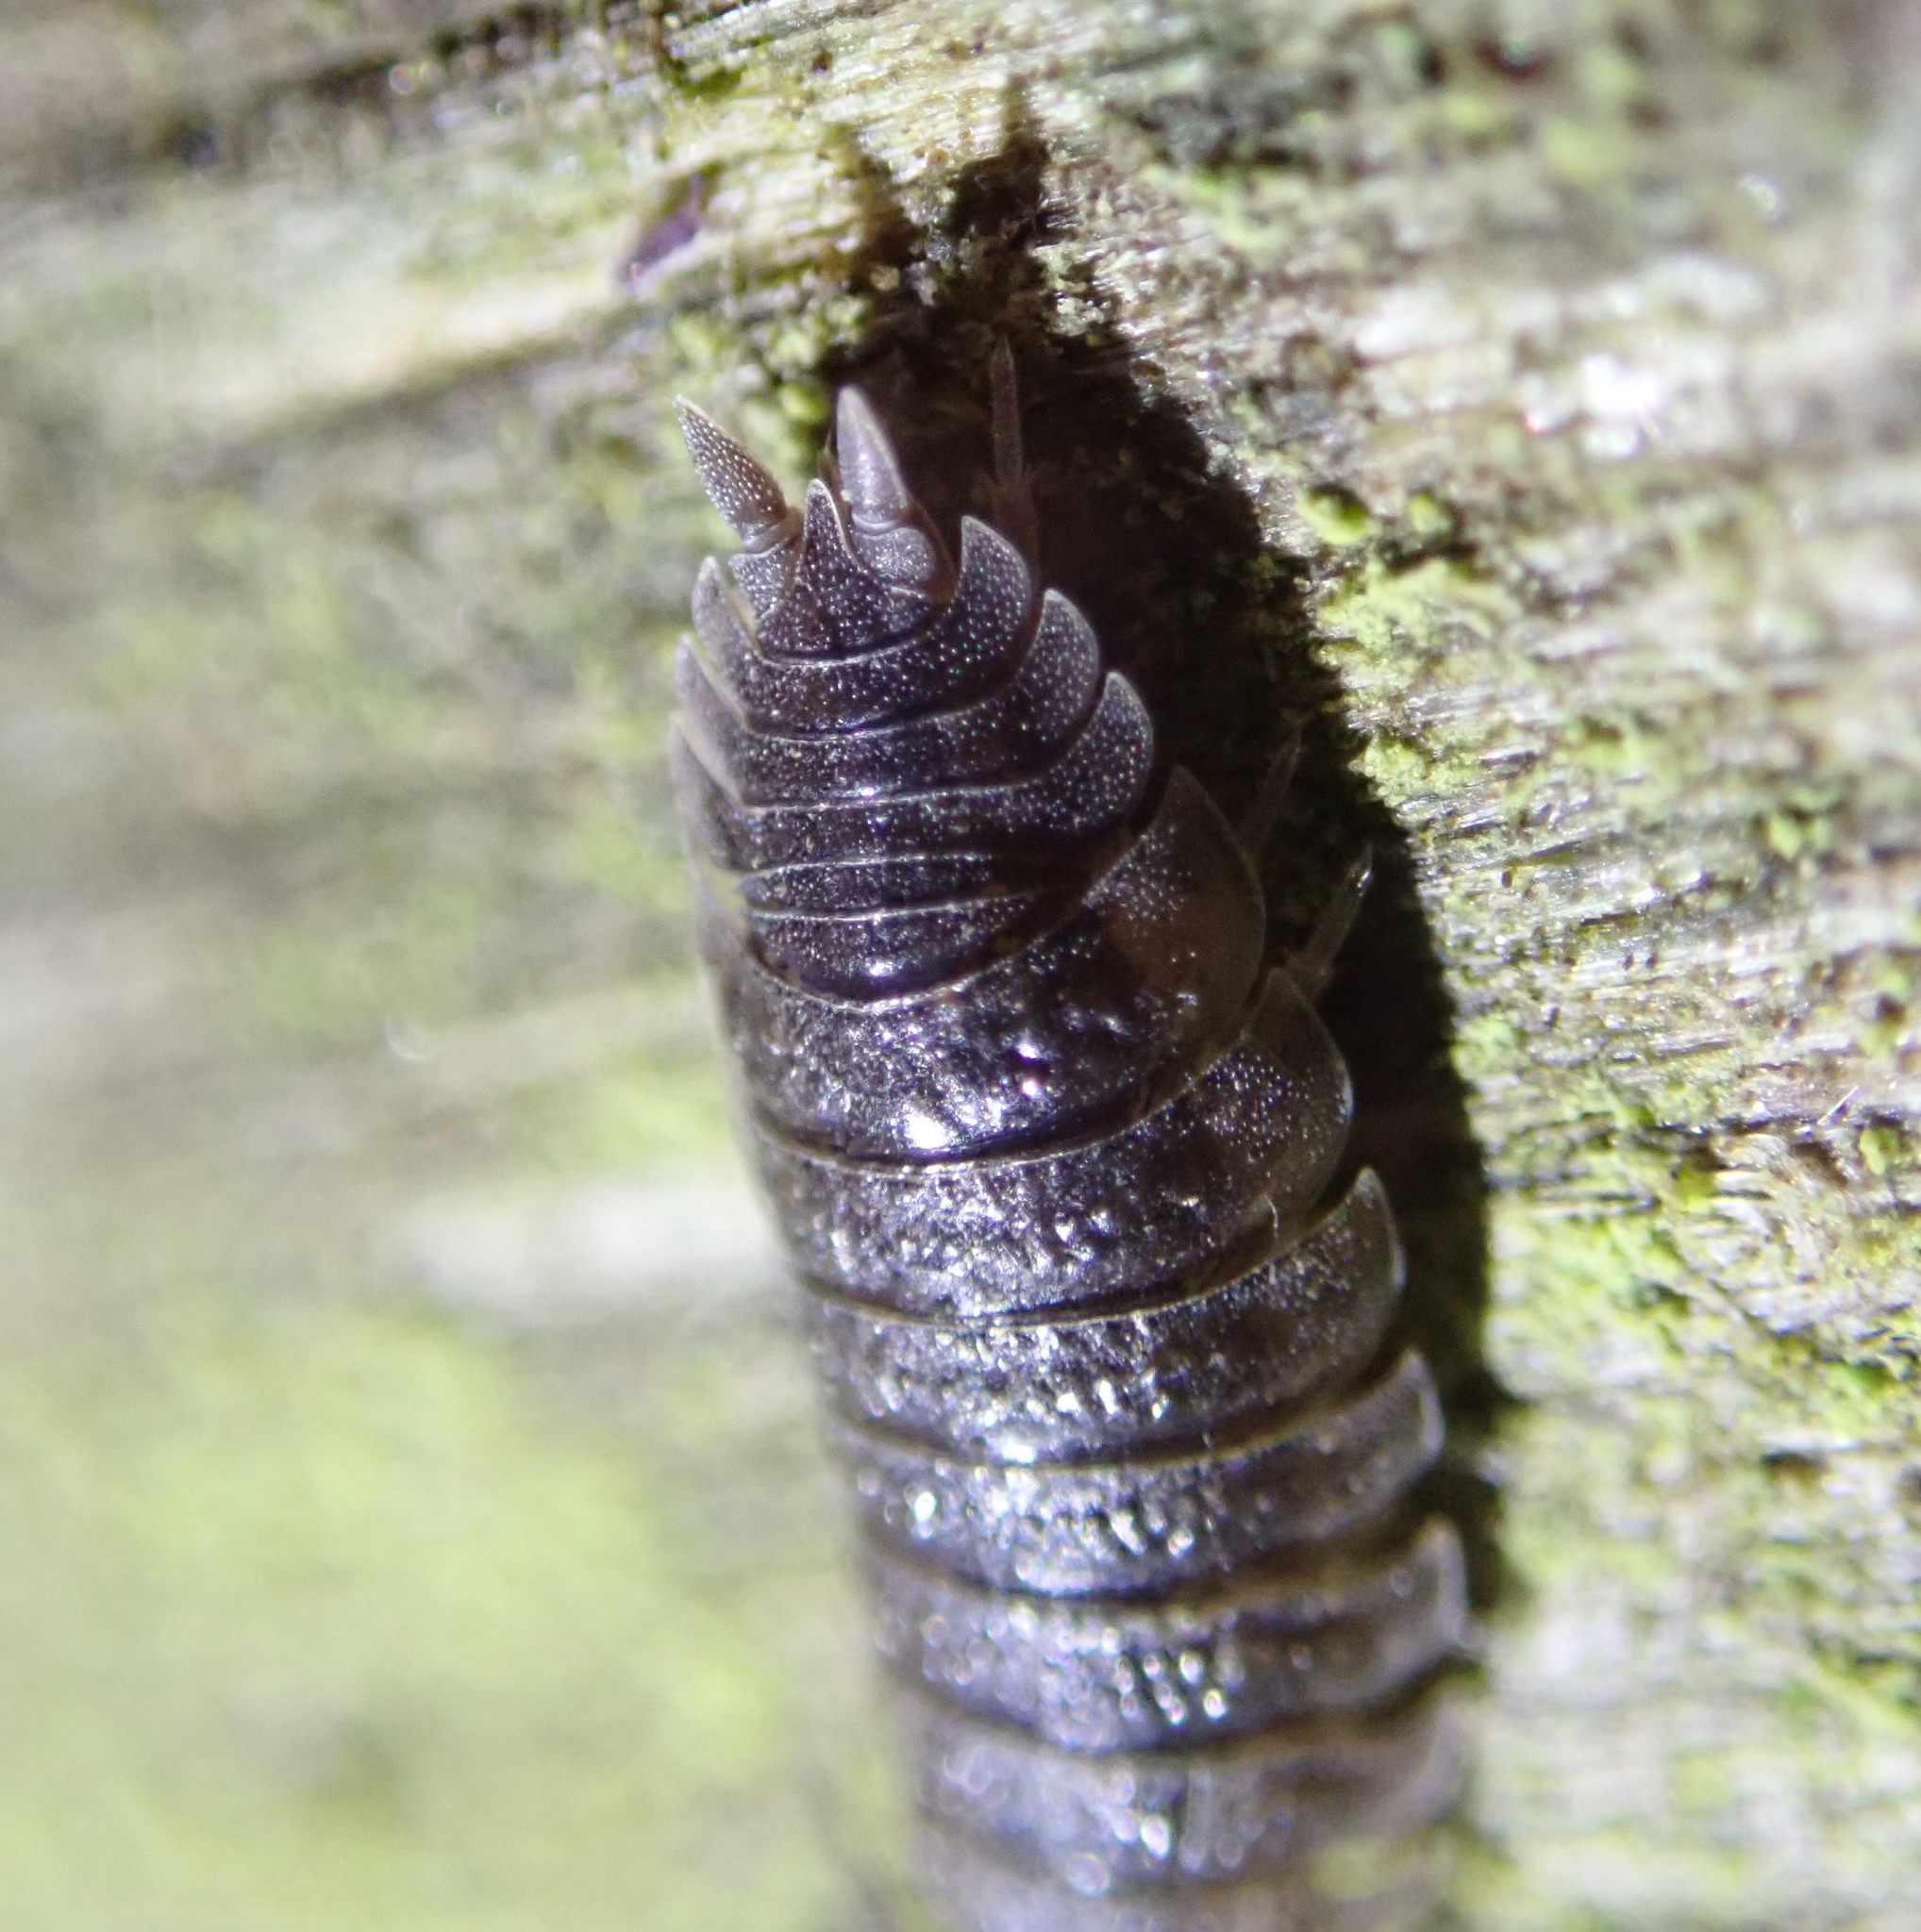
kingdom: Animalia
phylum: Arthropoda
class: Malacostraca
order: Isopoda
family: Porcellionidae
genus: Porcellio
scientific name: Porcellio scaber
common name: Common rough woodlouse
